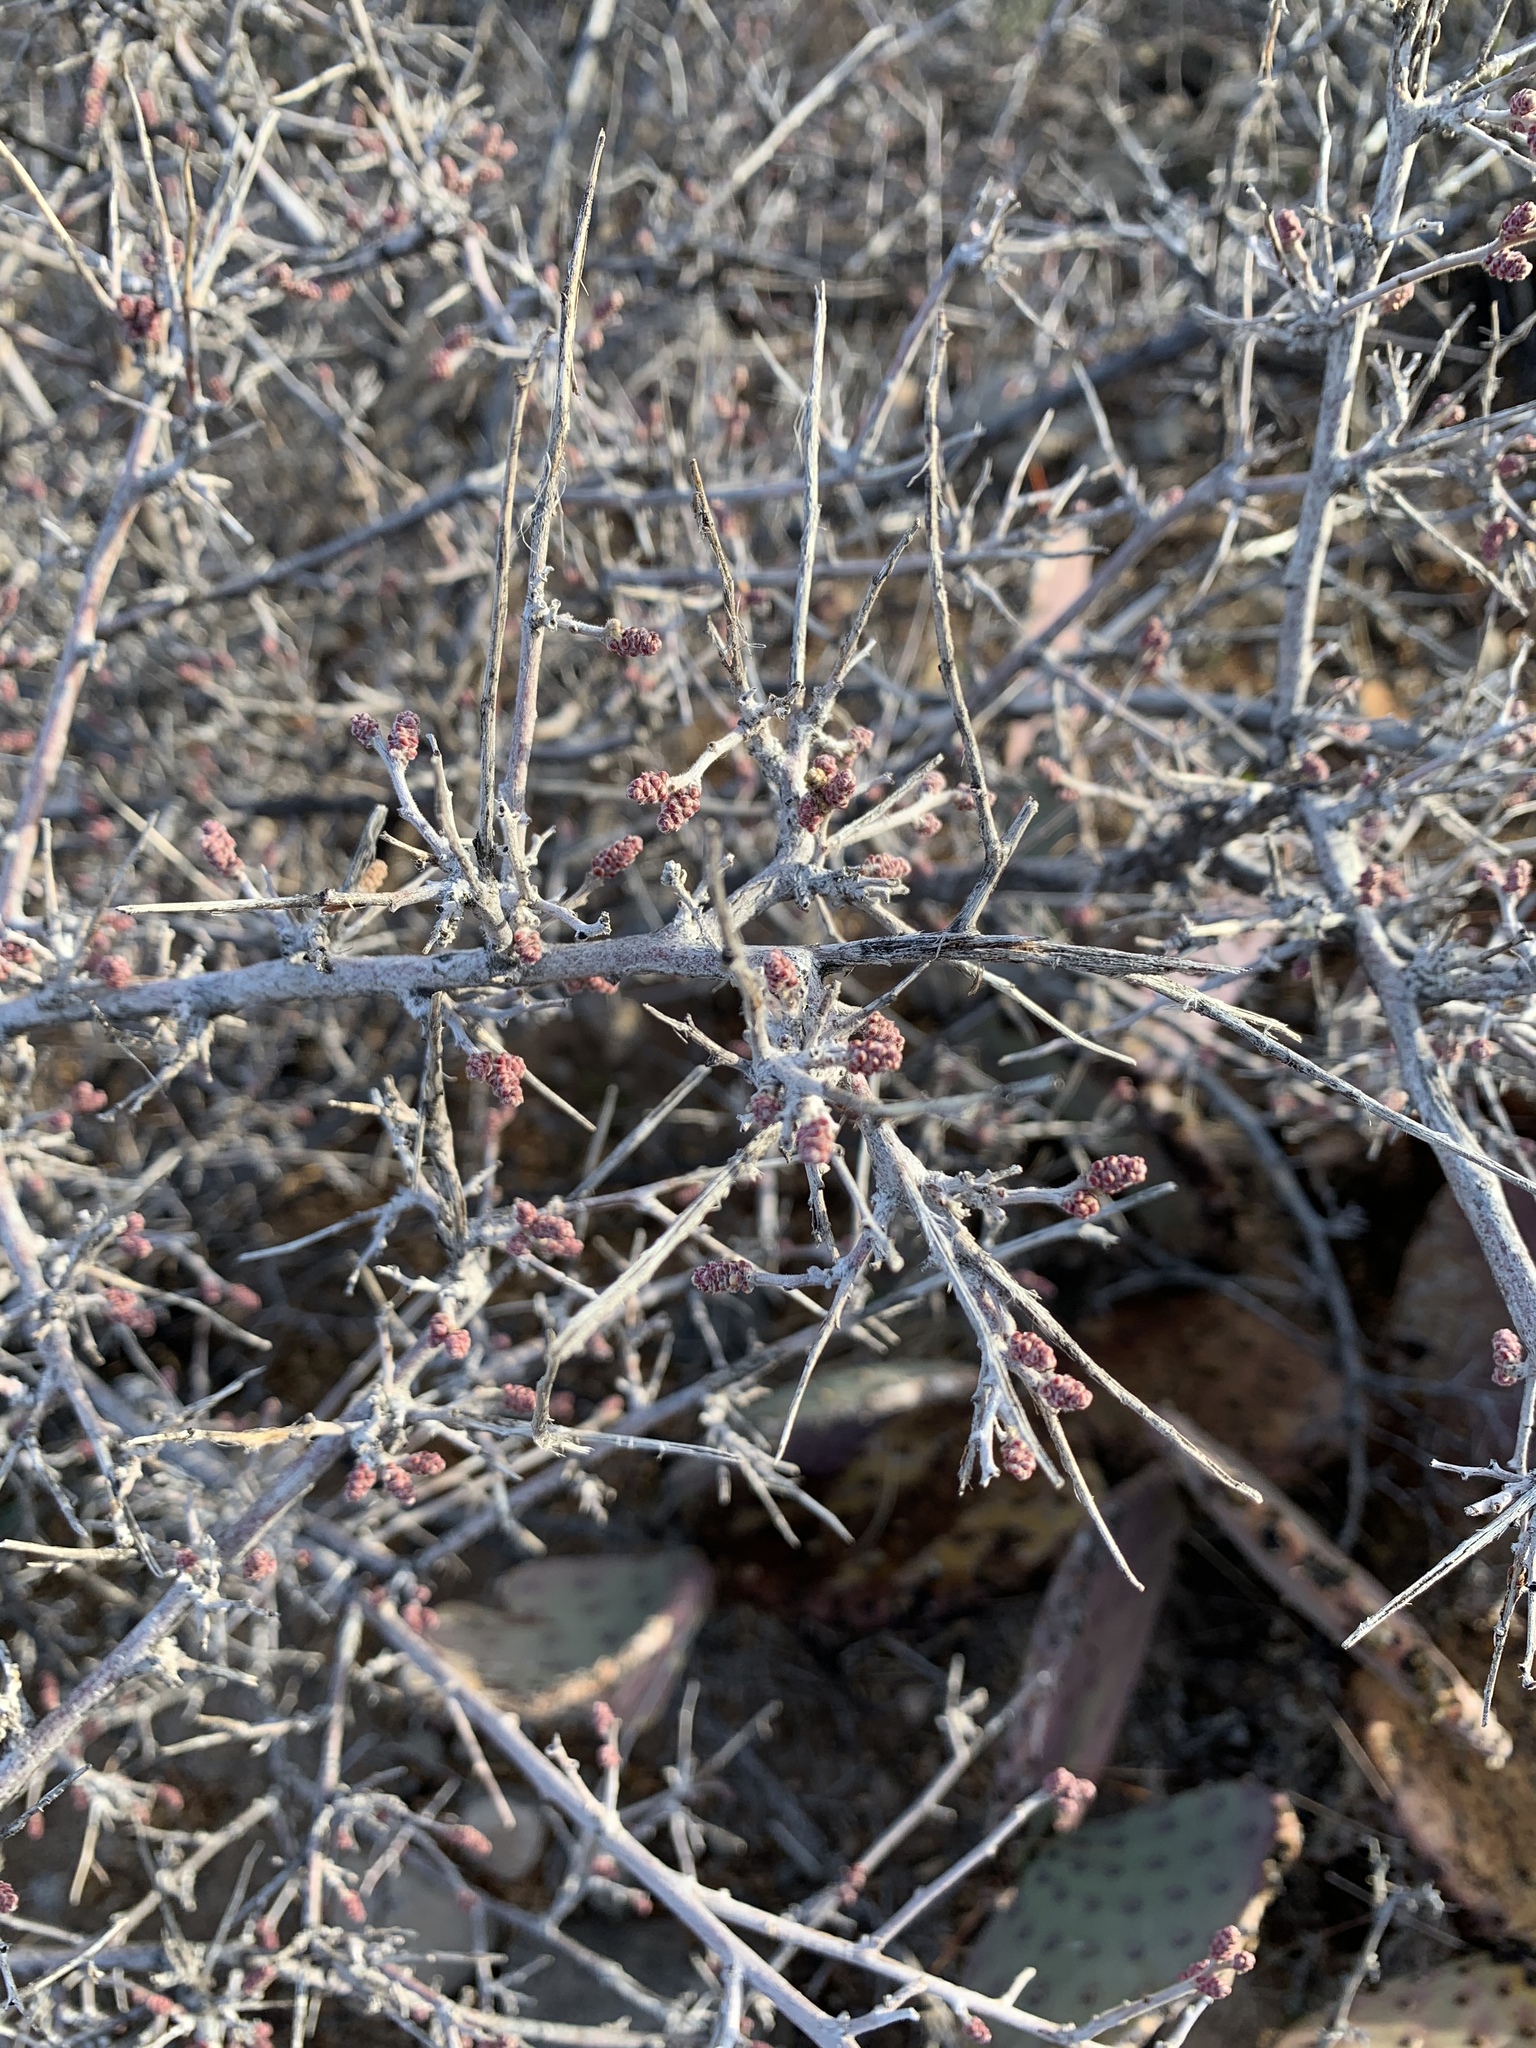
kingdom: Plantae
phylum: Tracheophyta
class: Magnoliopsida
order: Sapindales
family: Anacardiaceae
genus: Rhus
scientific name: Rhus microphylla
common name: Desert sumac
